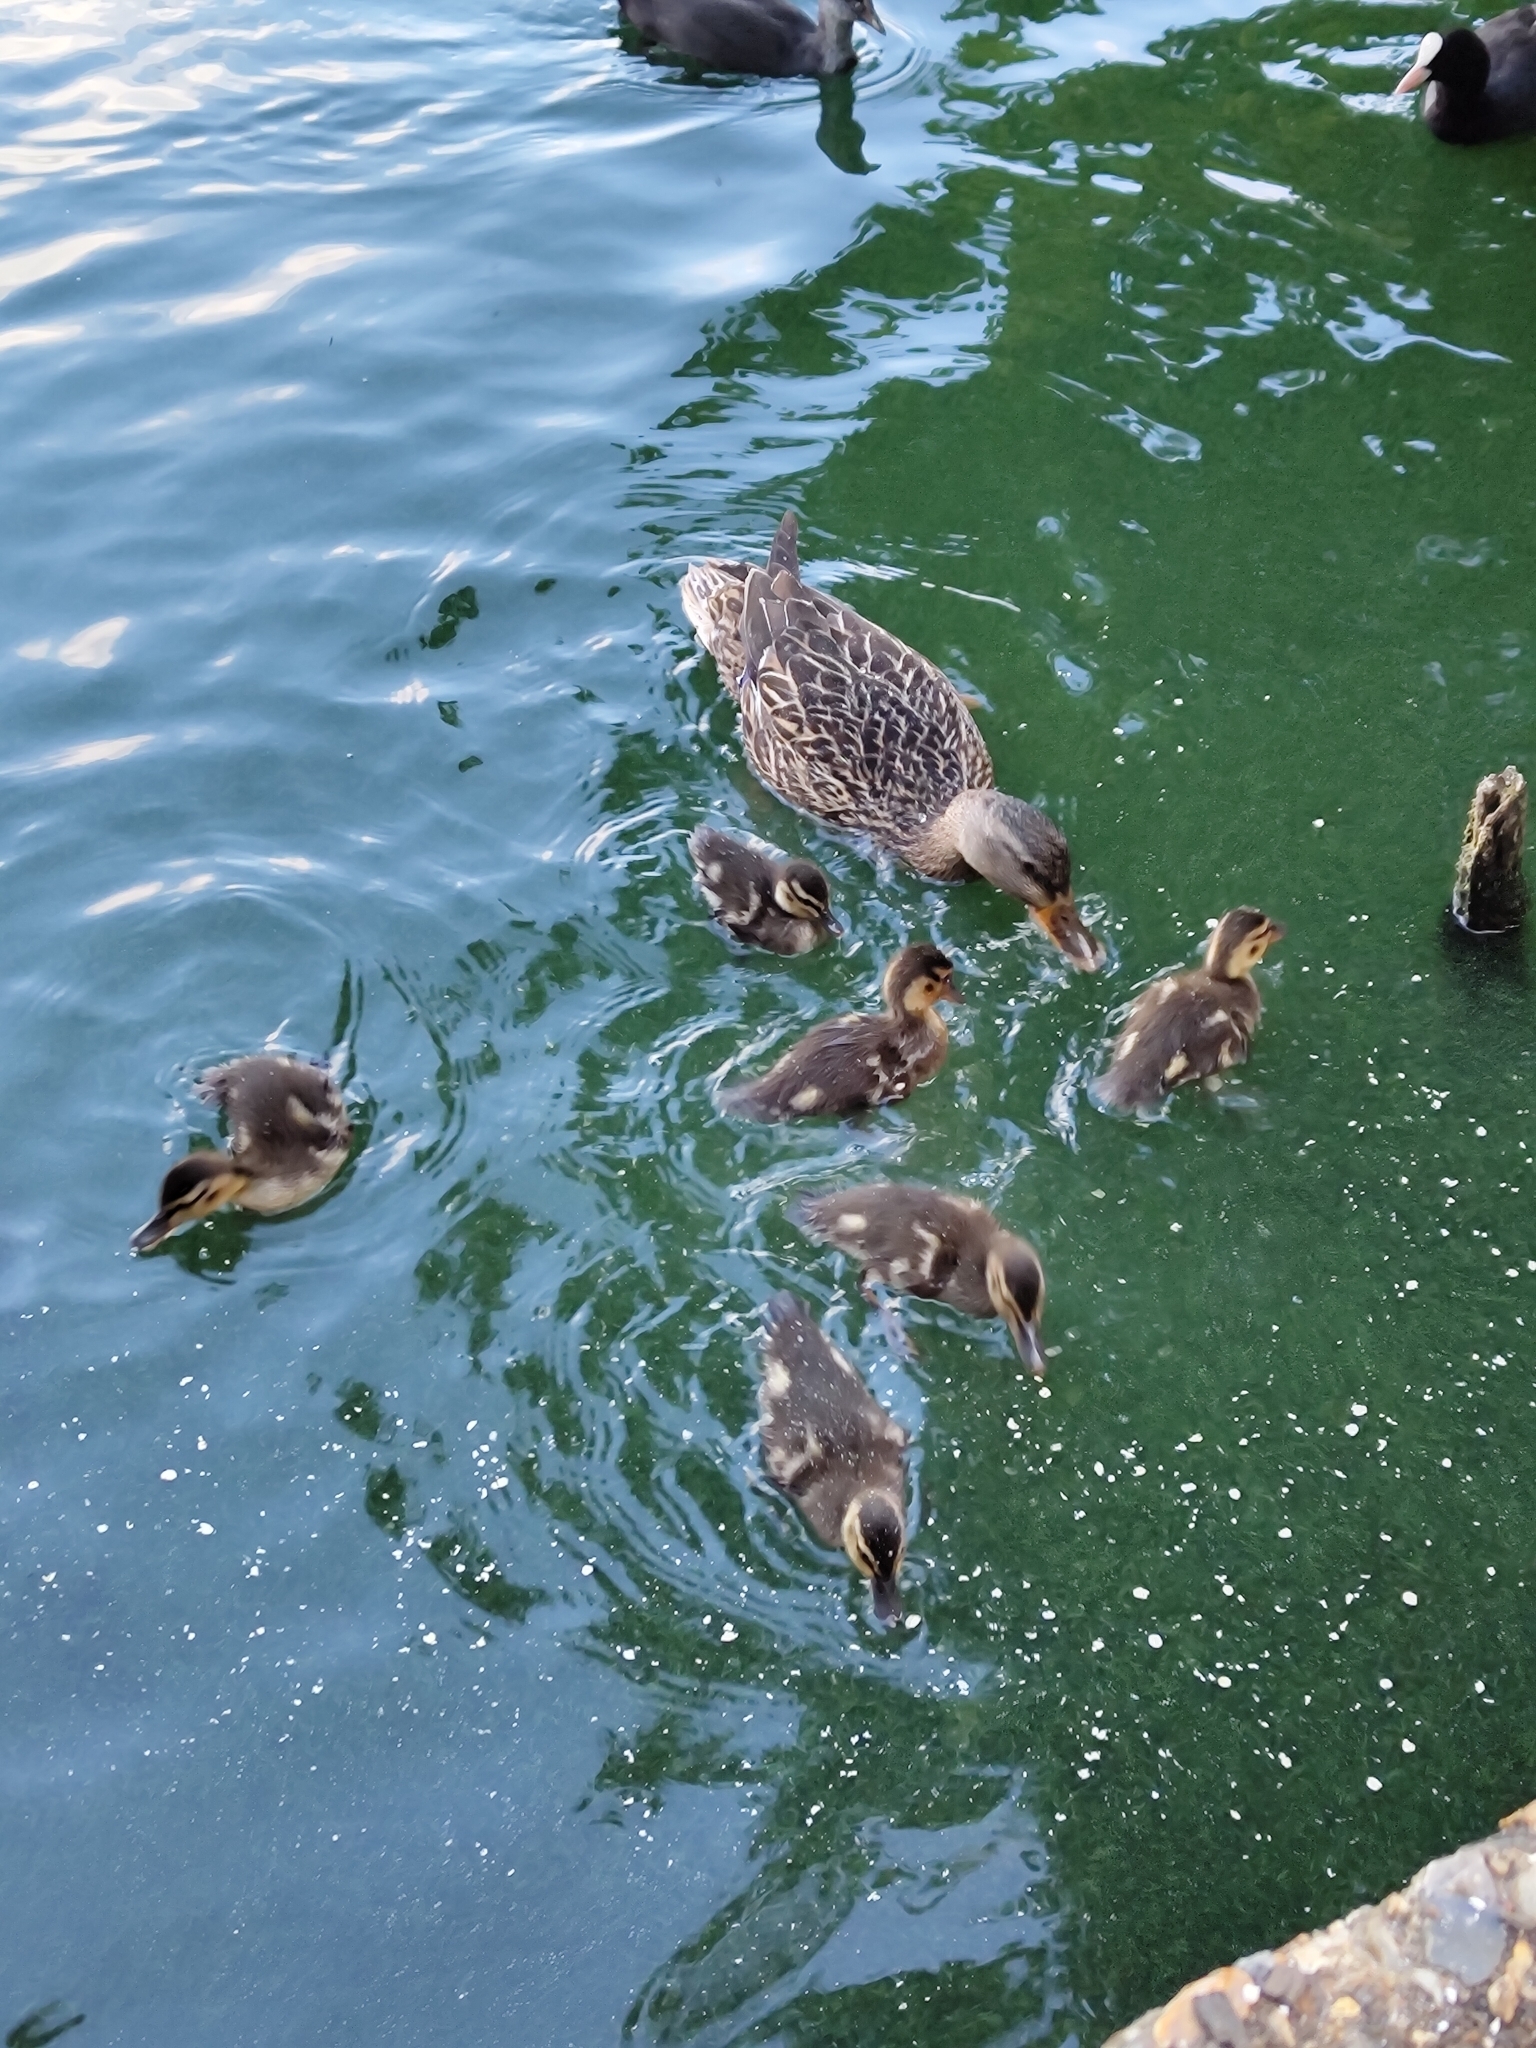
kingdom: Animalia
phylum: Chordata
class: Aves
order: Anseriformes
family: Anatidae
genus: Anas
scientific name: Anas platyrhynchos
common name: Mallard
